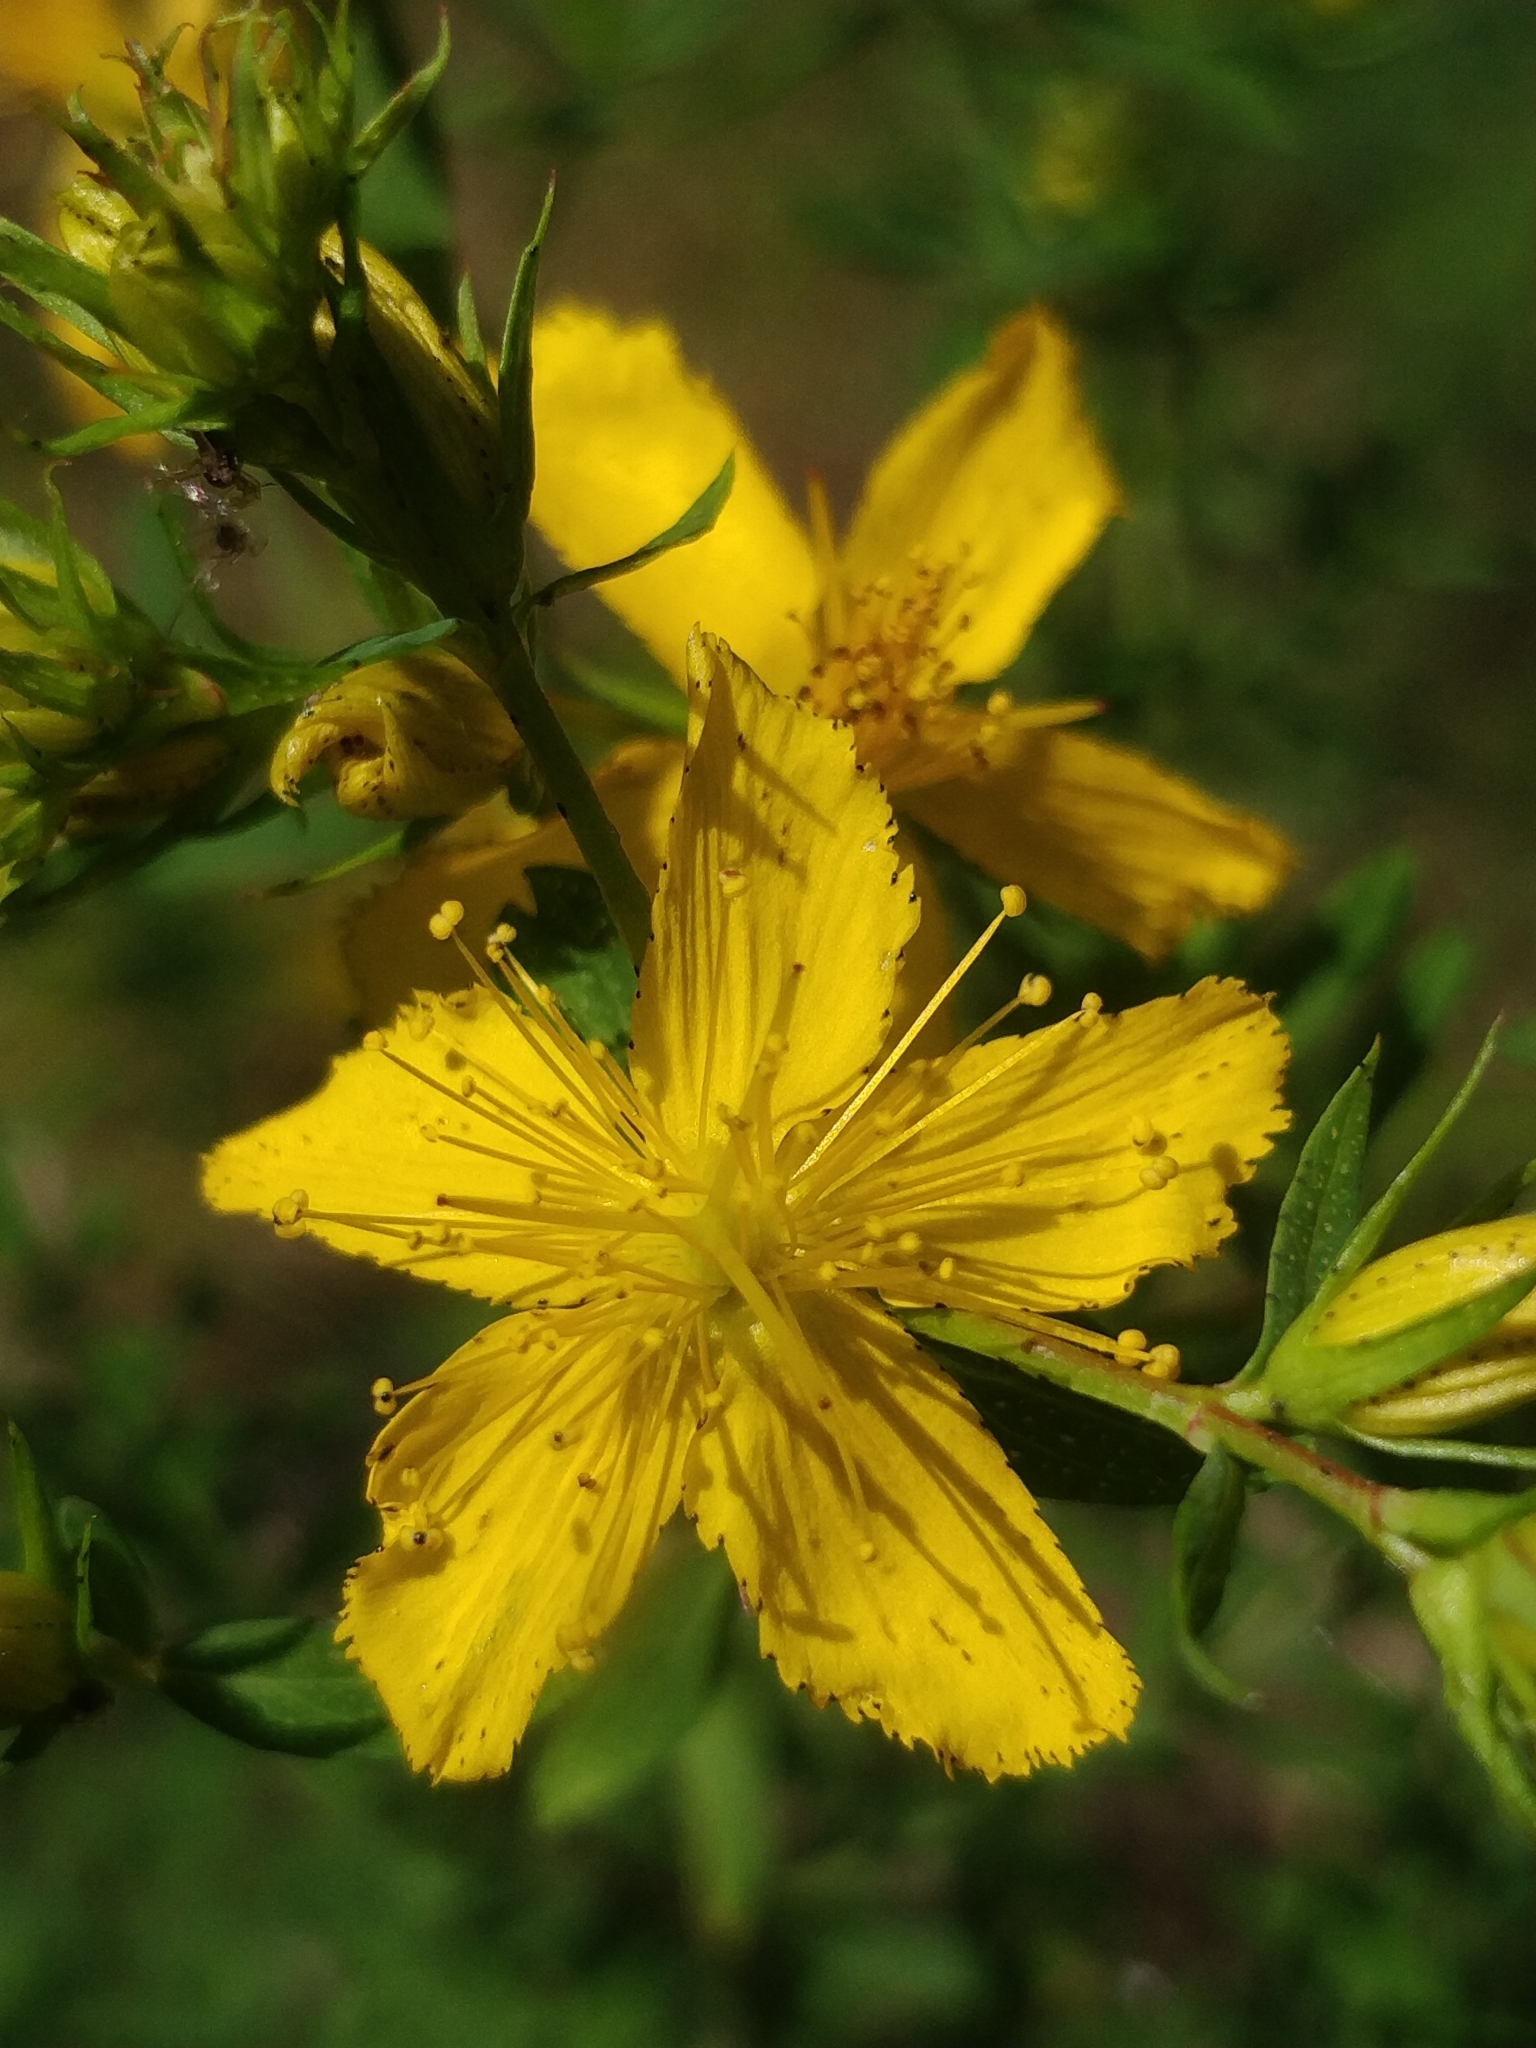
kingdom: Plantae
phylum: Tracheophyta
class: Magnoliopsida
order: Malpighiales
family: Hypericaceae
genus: Hypericum
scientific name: Hypericum perforatum
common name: Common st. johnswort
